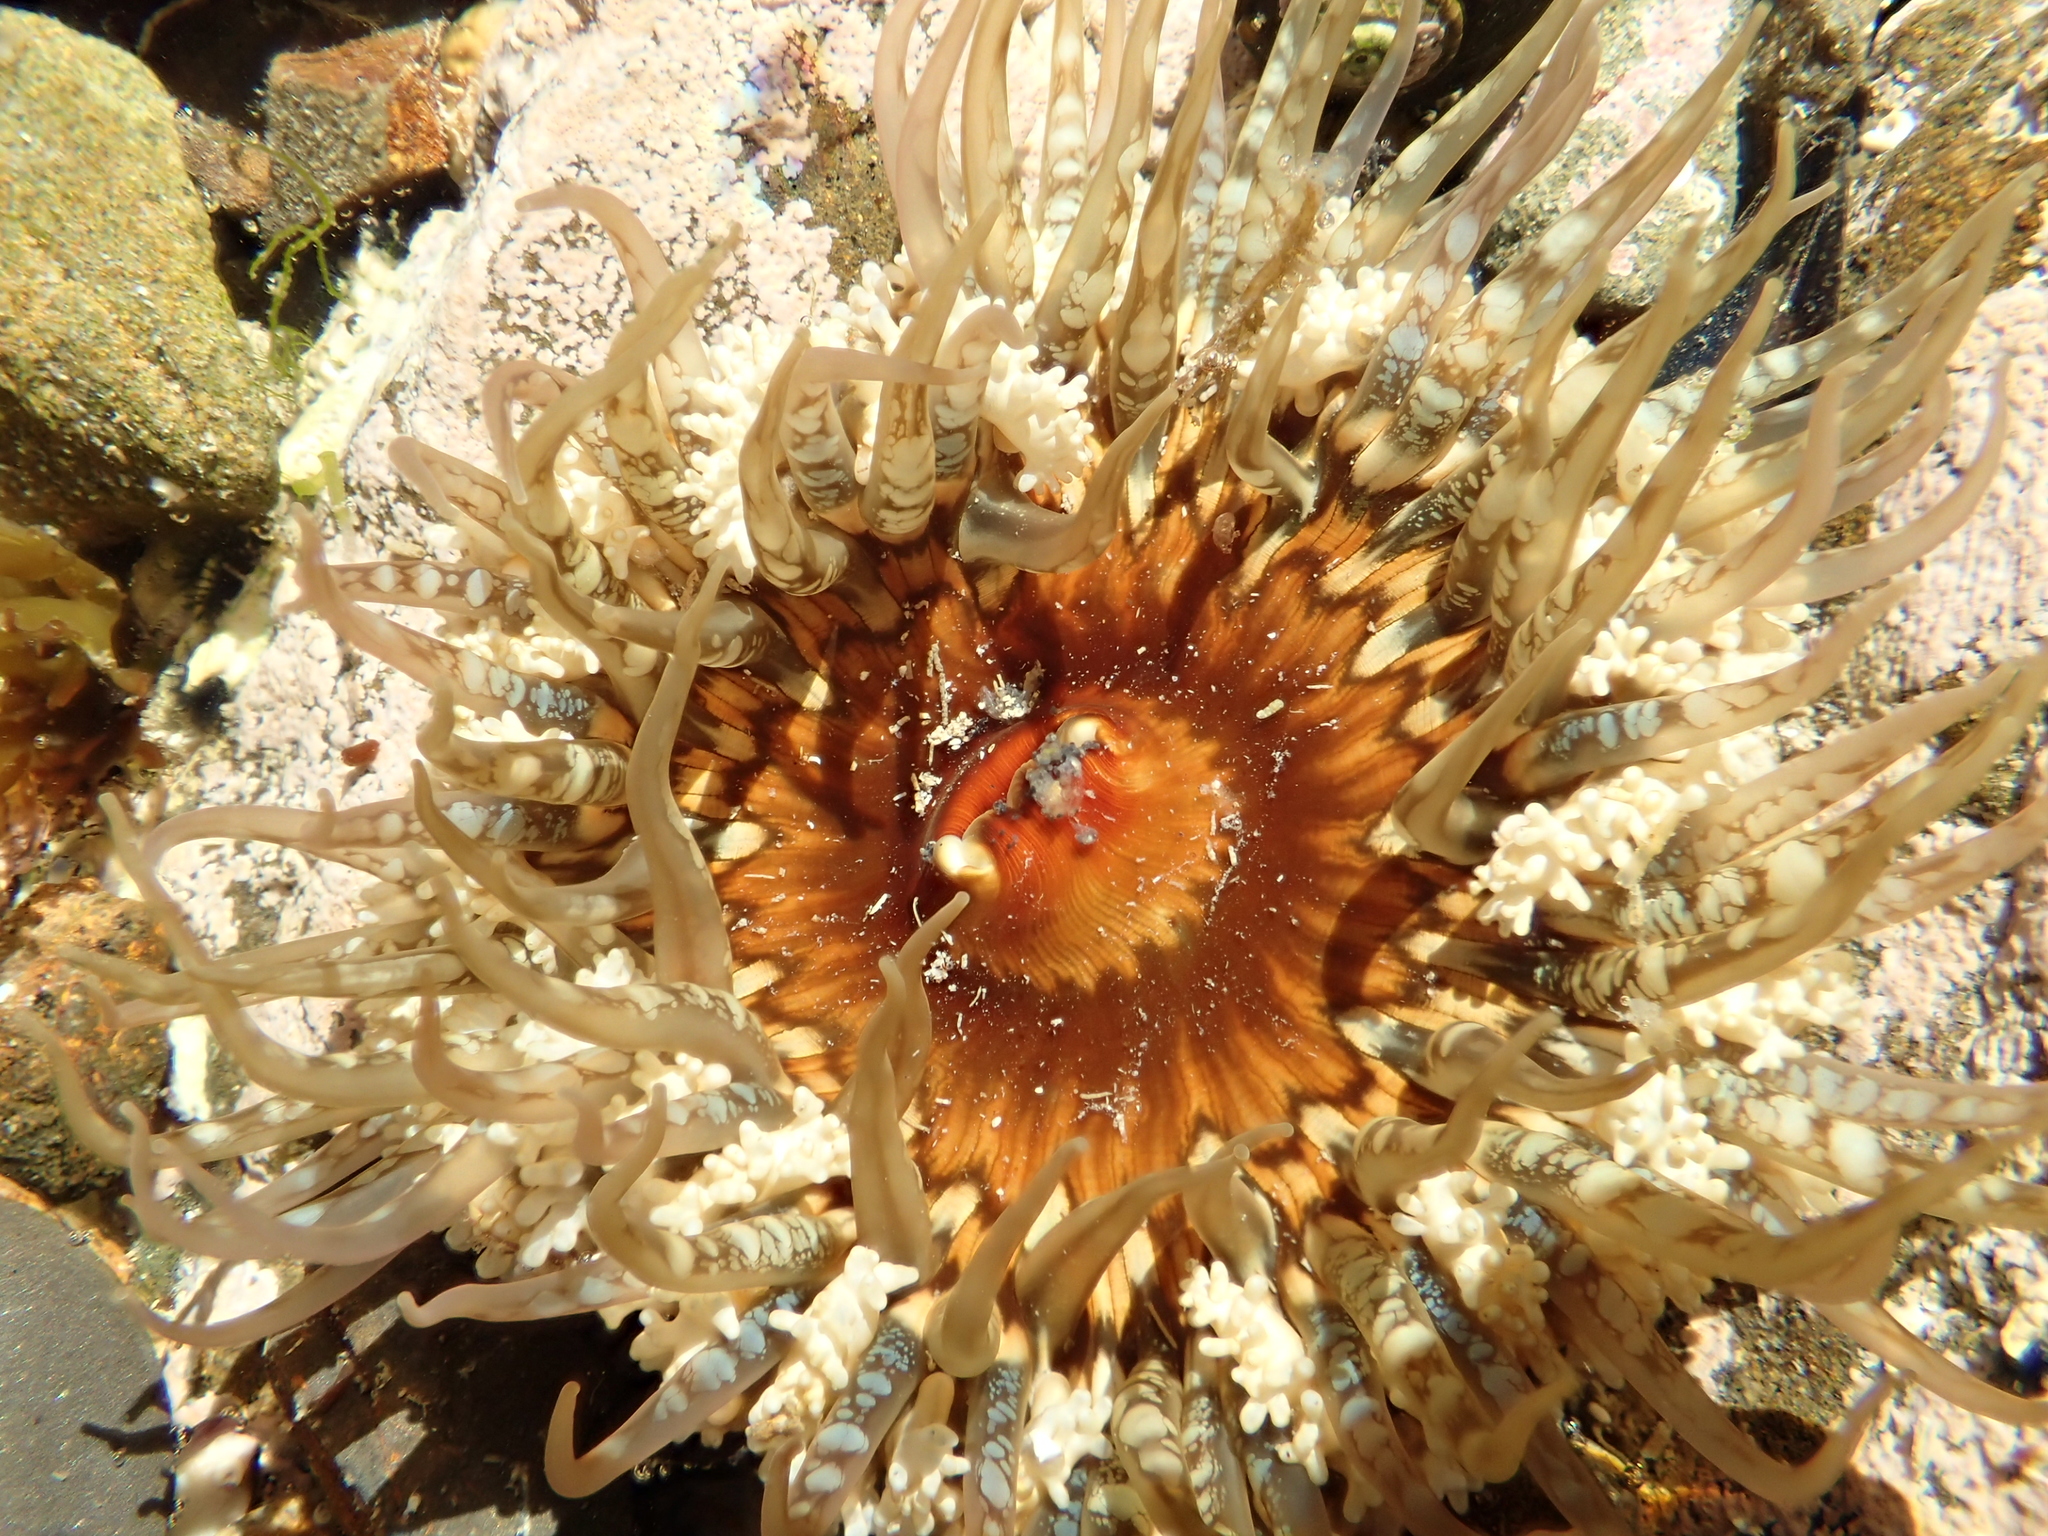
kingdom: Animalia
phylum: Cnidaria
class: Anthozoa
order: Actiniaria
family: Actiniidae
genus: Oulactis
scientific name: Oulactis muscosa
